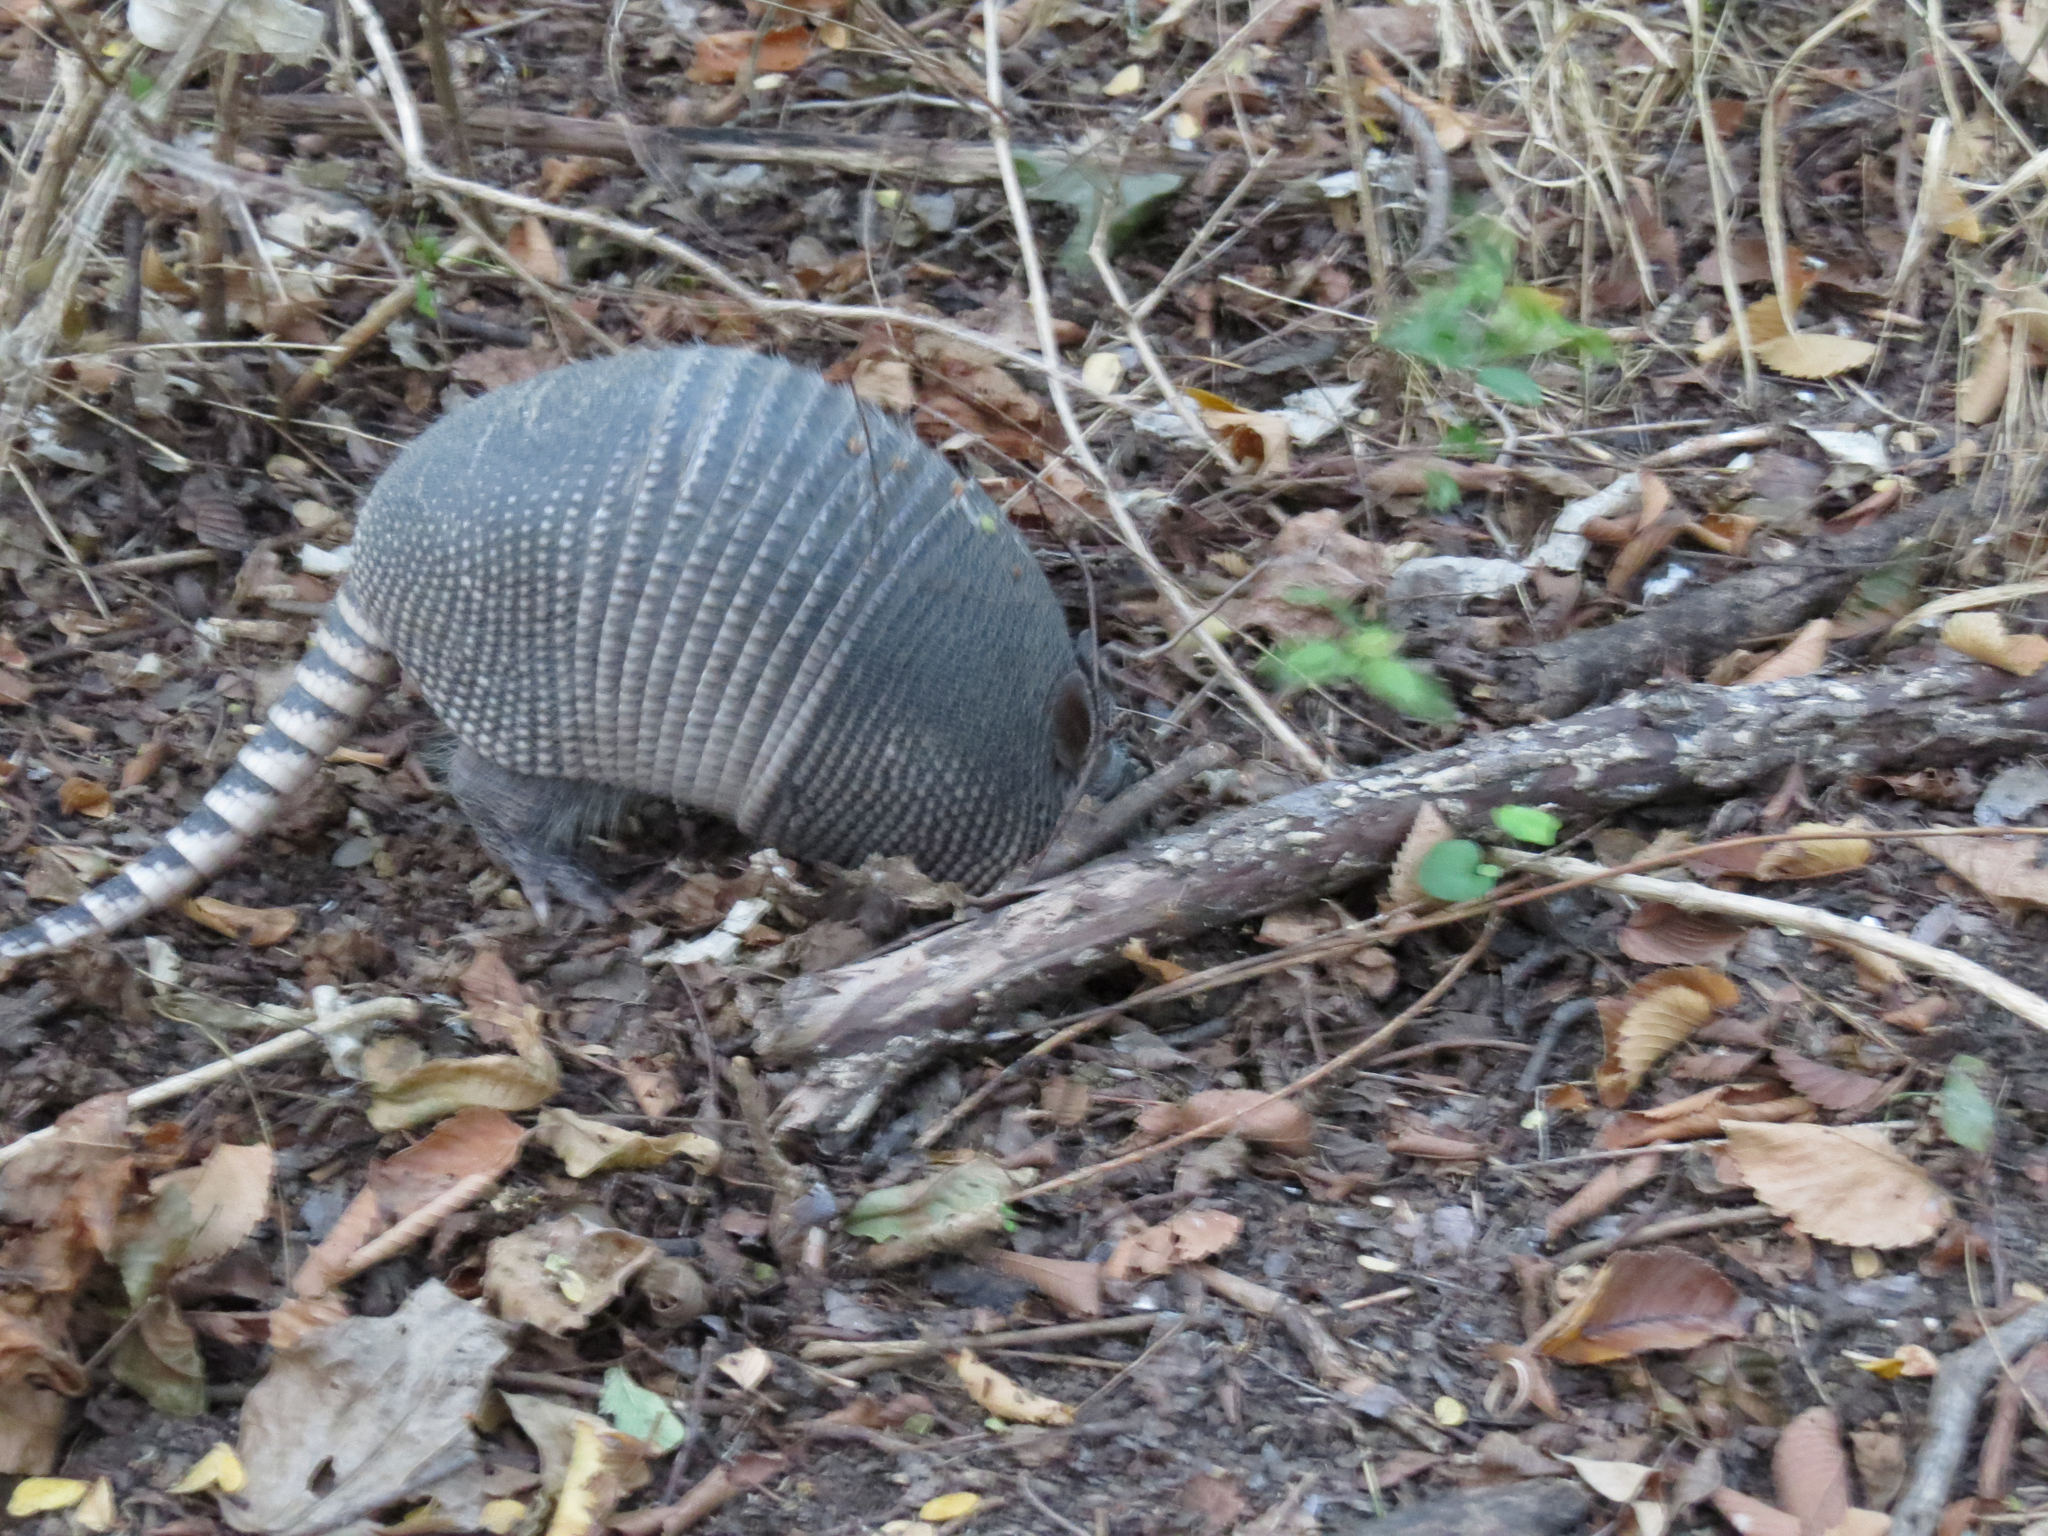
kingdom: Animalia
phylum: Chordata
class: Mammalia
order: Cingulata
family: Dasypodidae
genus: Dasypus
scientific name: Dasypus novemcinctus
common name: Nine-banded armadillo
